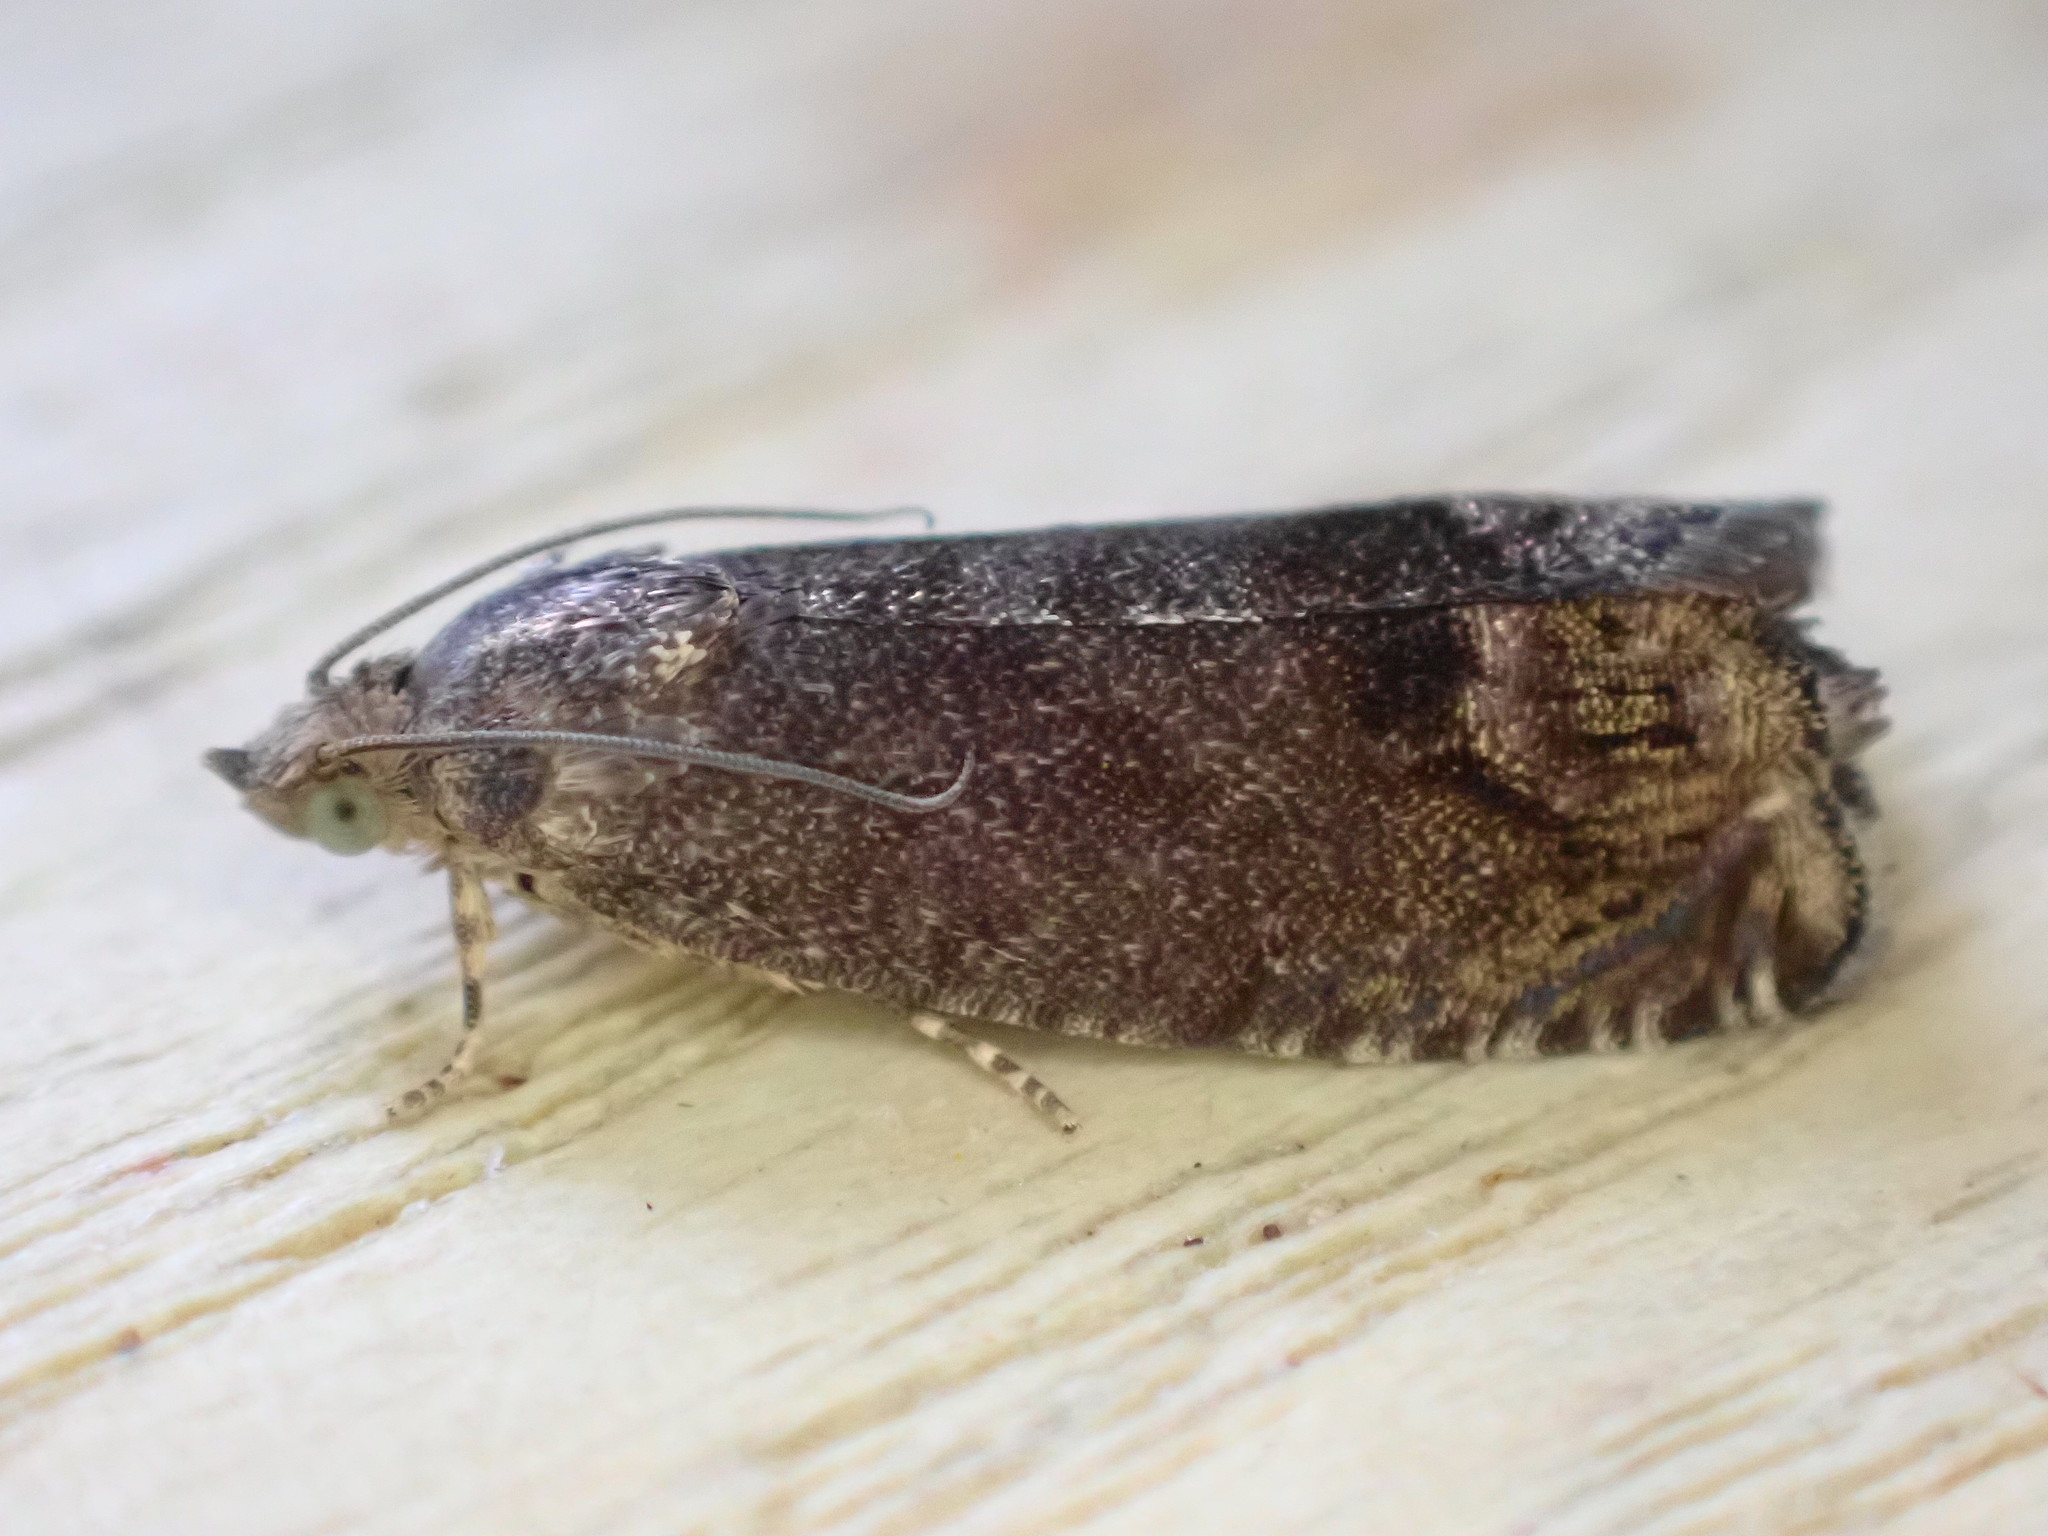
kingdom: Animalia
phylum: Arthropoda
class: Insecta
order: Lepidoptera
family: Tortricidae
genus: Cydia
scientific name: Cydia splendana
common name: De: kastanienwickler, eichenwickler es: oruga de la castaña fr: carpocapse des châtaignes it: cidia o tortrice tardiva delle castagne pt: bichado das castanhas gb: acorn moth, chestnut fruit tortrix
